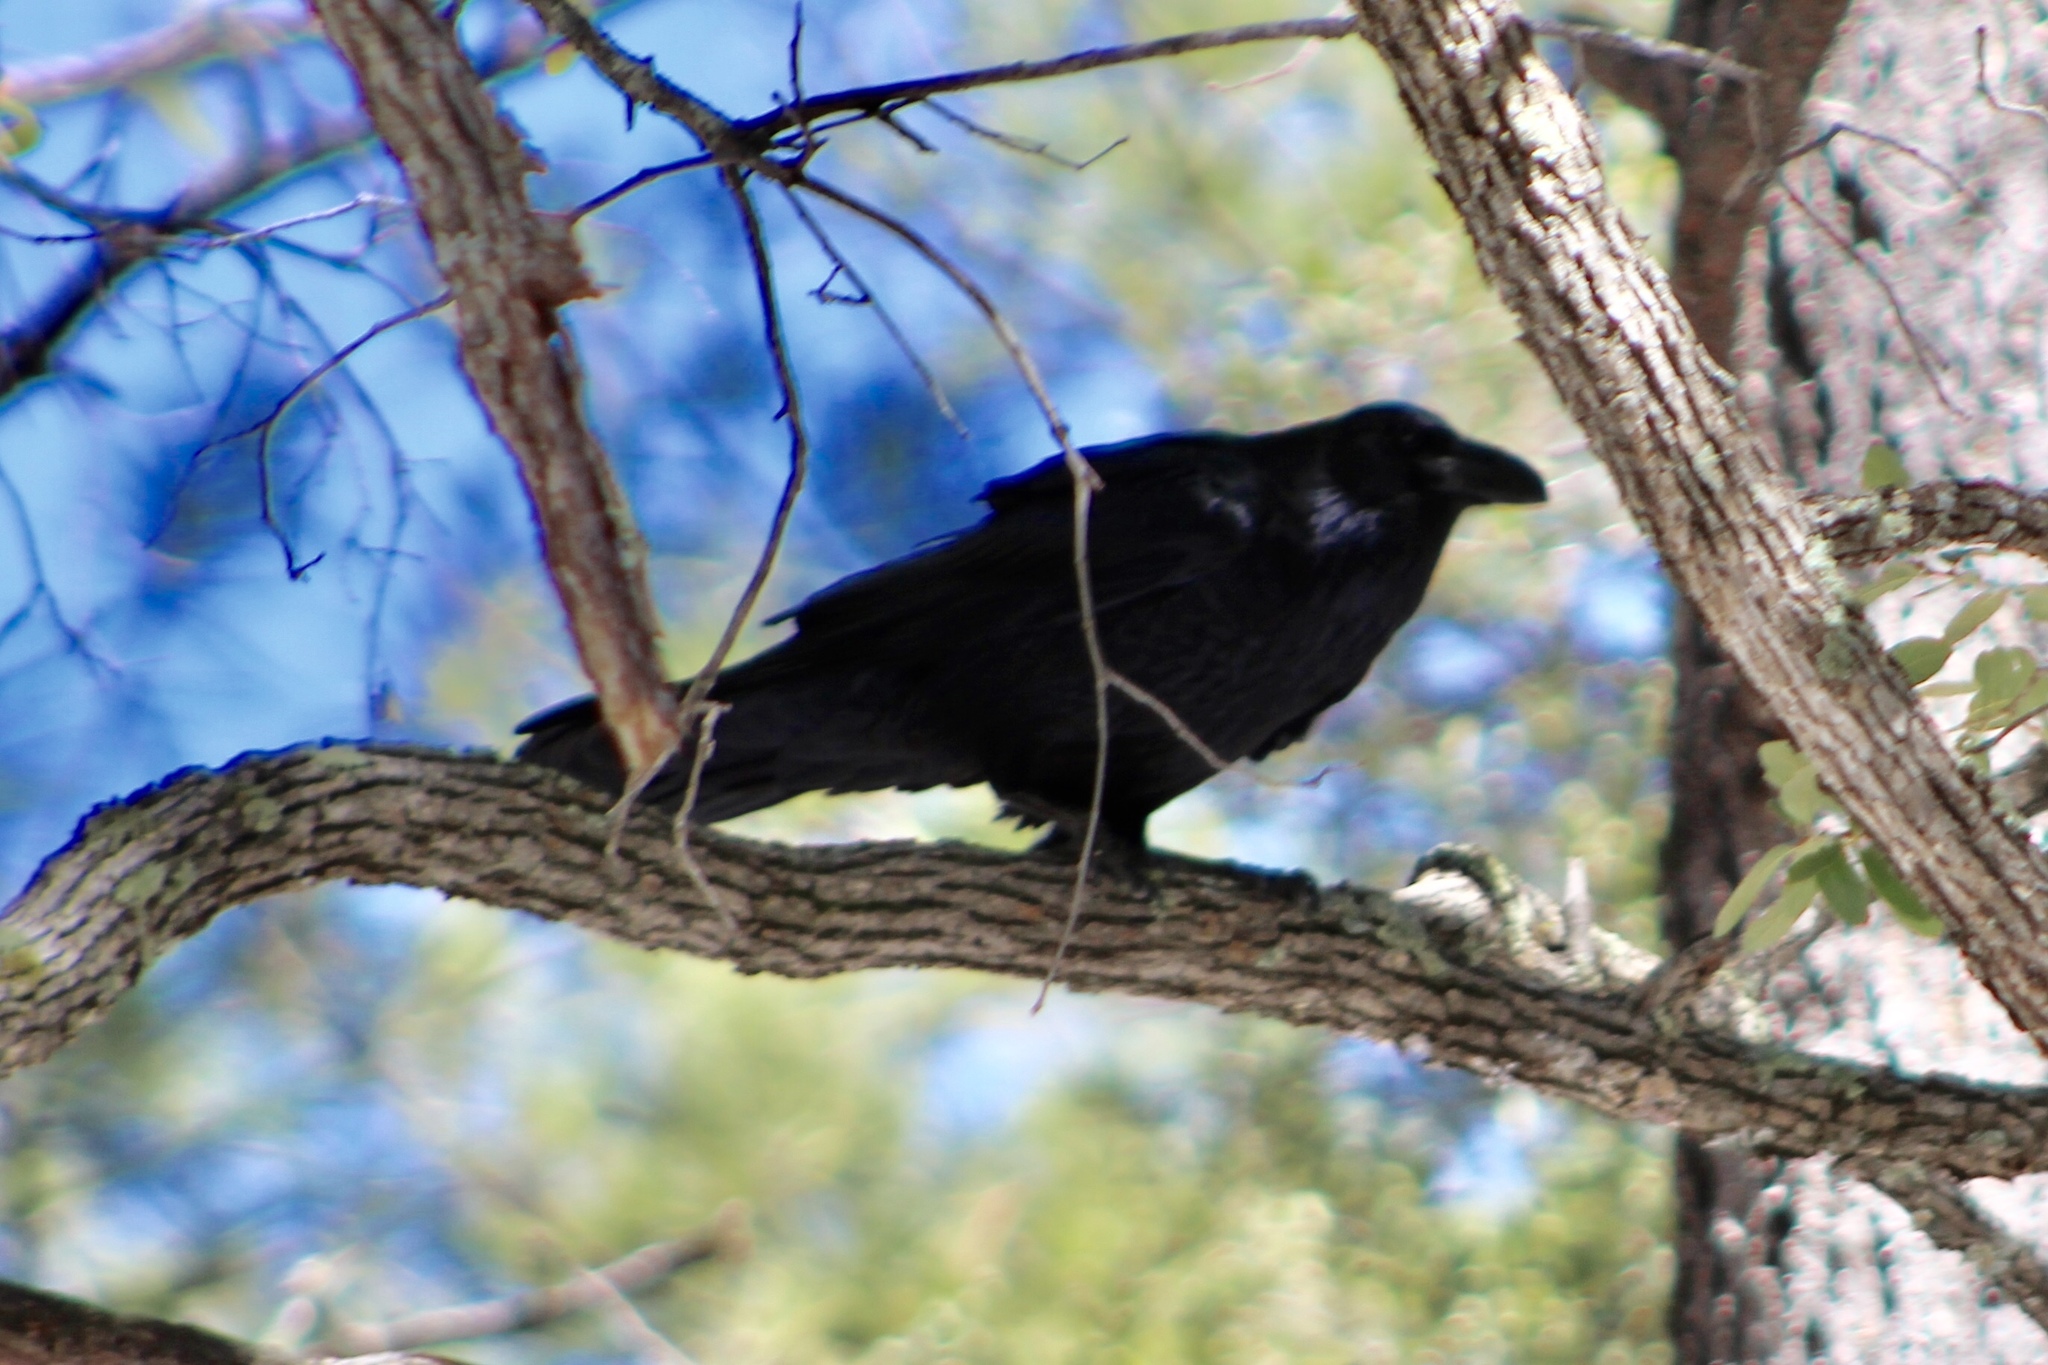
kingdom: Animalia
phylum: Chordata
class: Aves
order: Passeriformes
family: Corvidae
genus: Corvus
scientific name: Corvus corax
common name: Common raven
